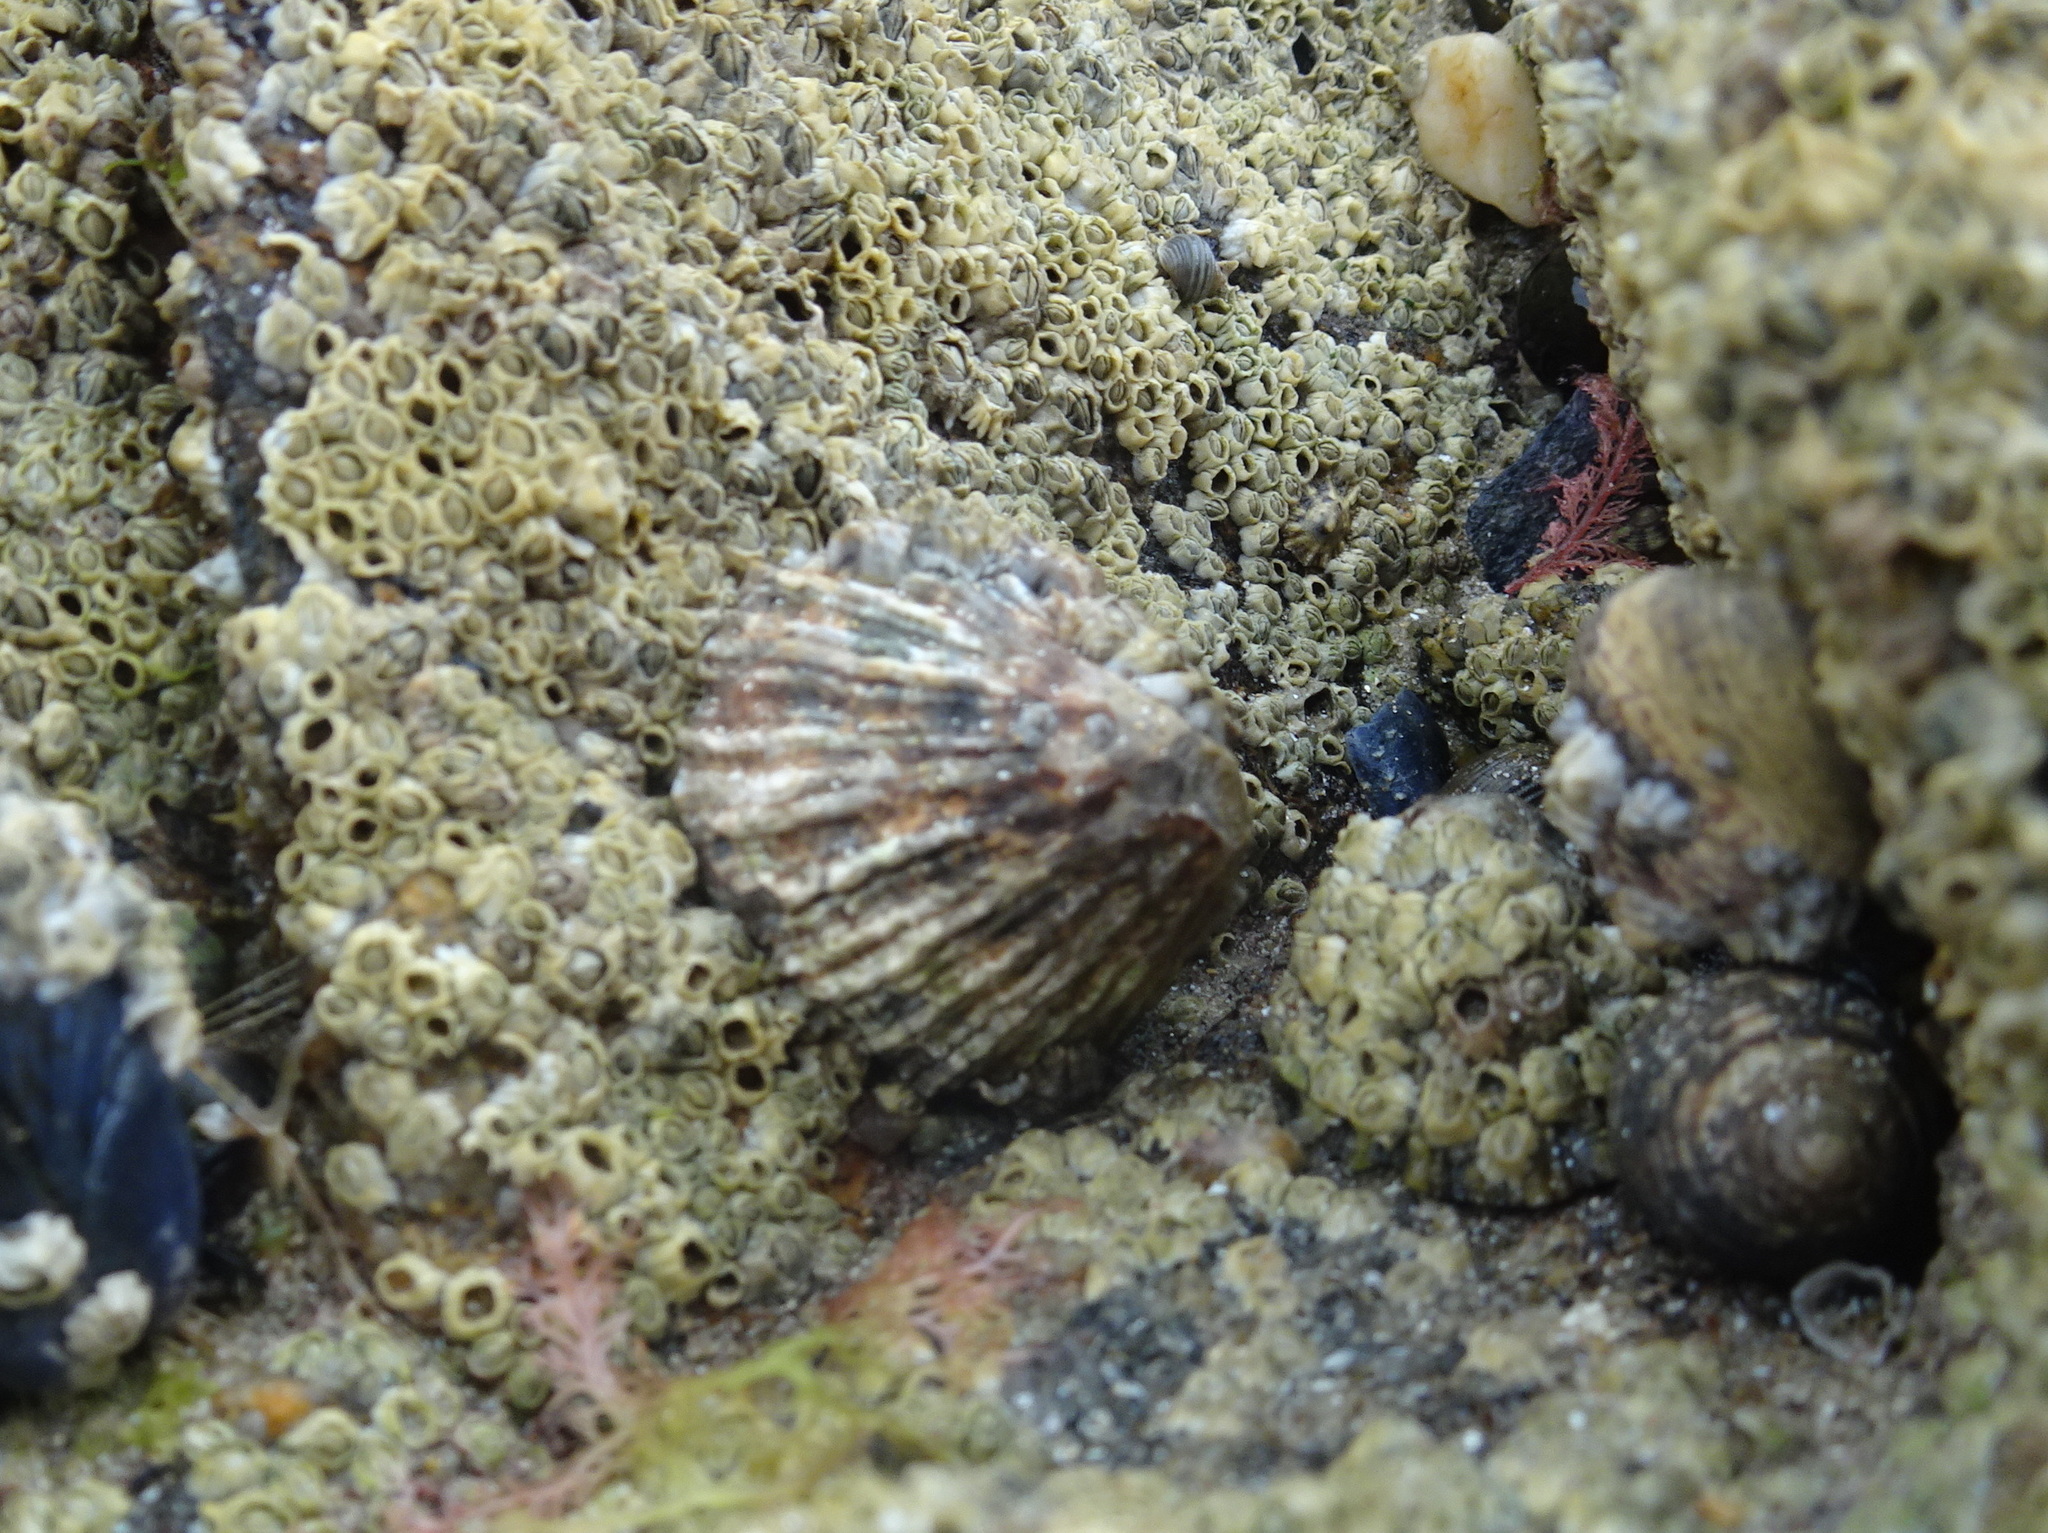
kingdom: Animalia
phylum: Mollusca
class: Gastropoda
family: Patellidae
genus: Patella
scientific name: Patella vulgata
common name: Common limpet
